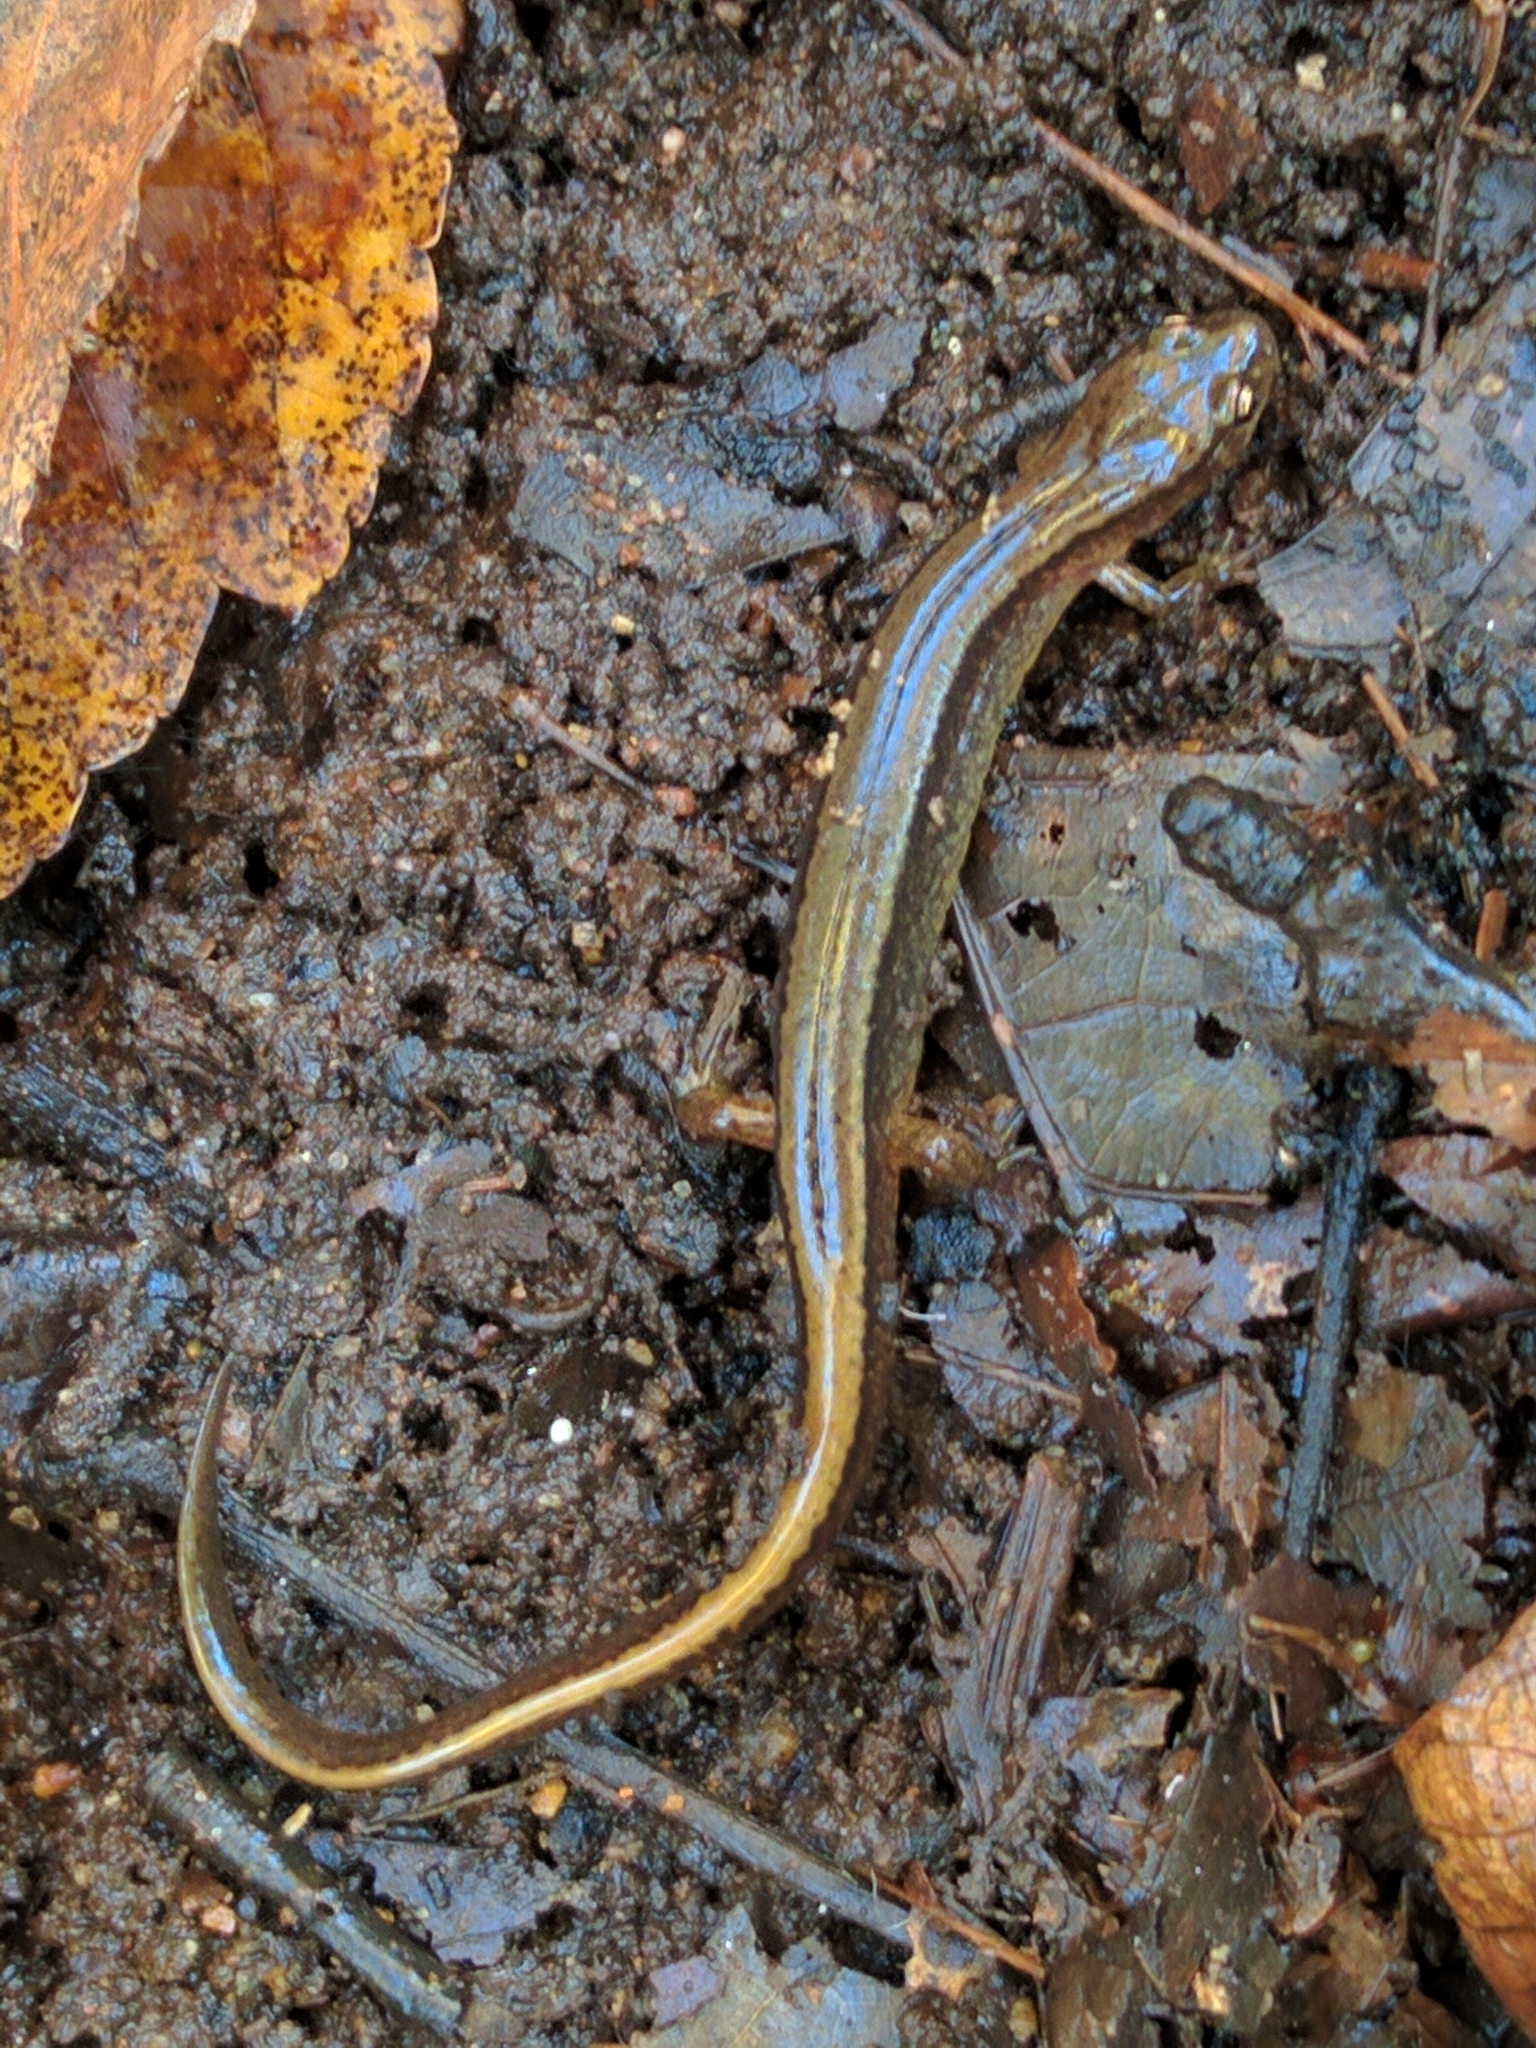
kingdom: Animalia
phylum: Chordata
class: Amphibia
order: Caudata
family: Plethodontidae
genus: Eurycea
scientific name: Eurycea bislineata
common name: Northern two-lined salamander
